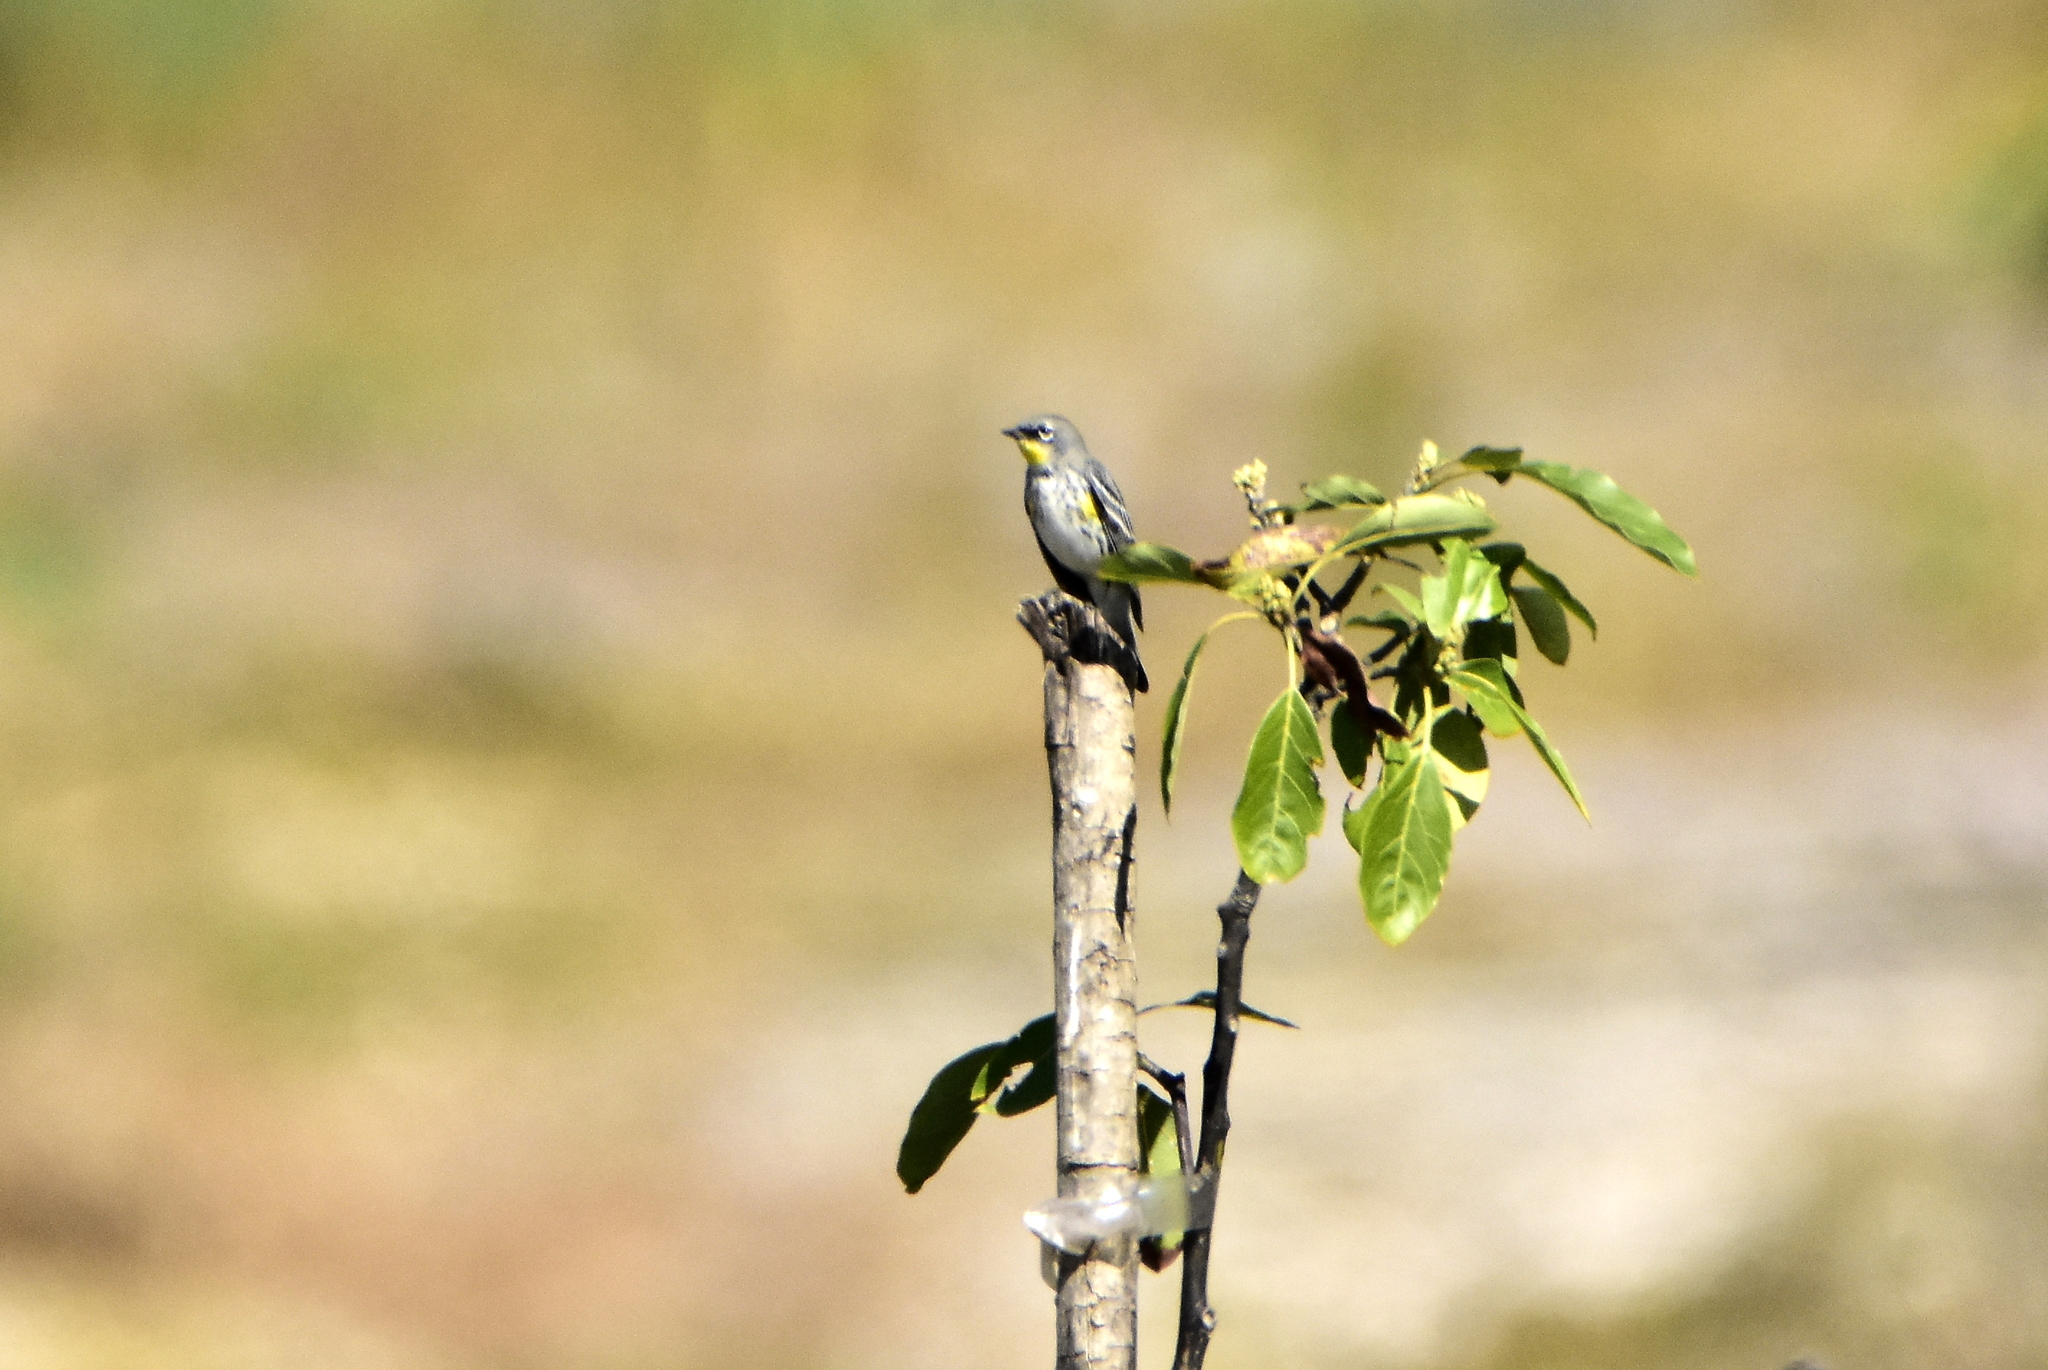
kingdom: Animalia
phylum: Chordata
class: Aves
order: Passeriformes
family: Parulidae
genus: Setophaga
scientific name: Setophaga auduboni
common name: Audubon's warbler
